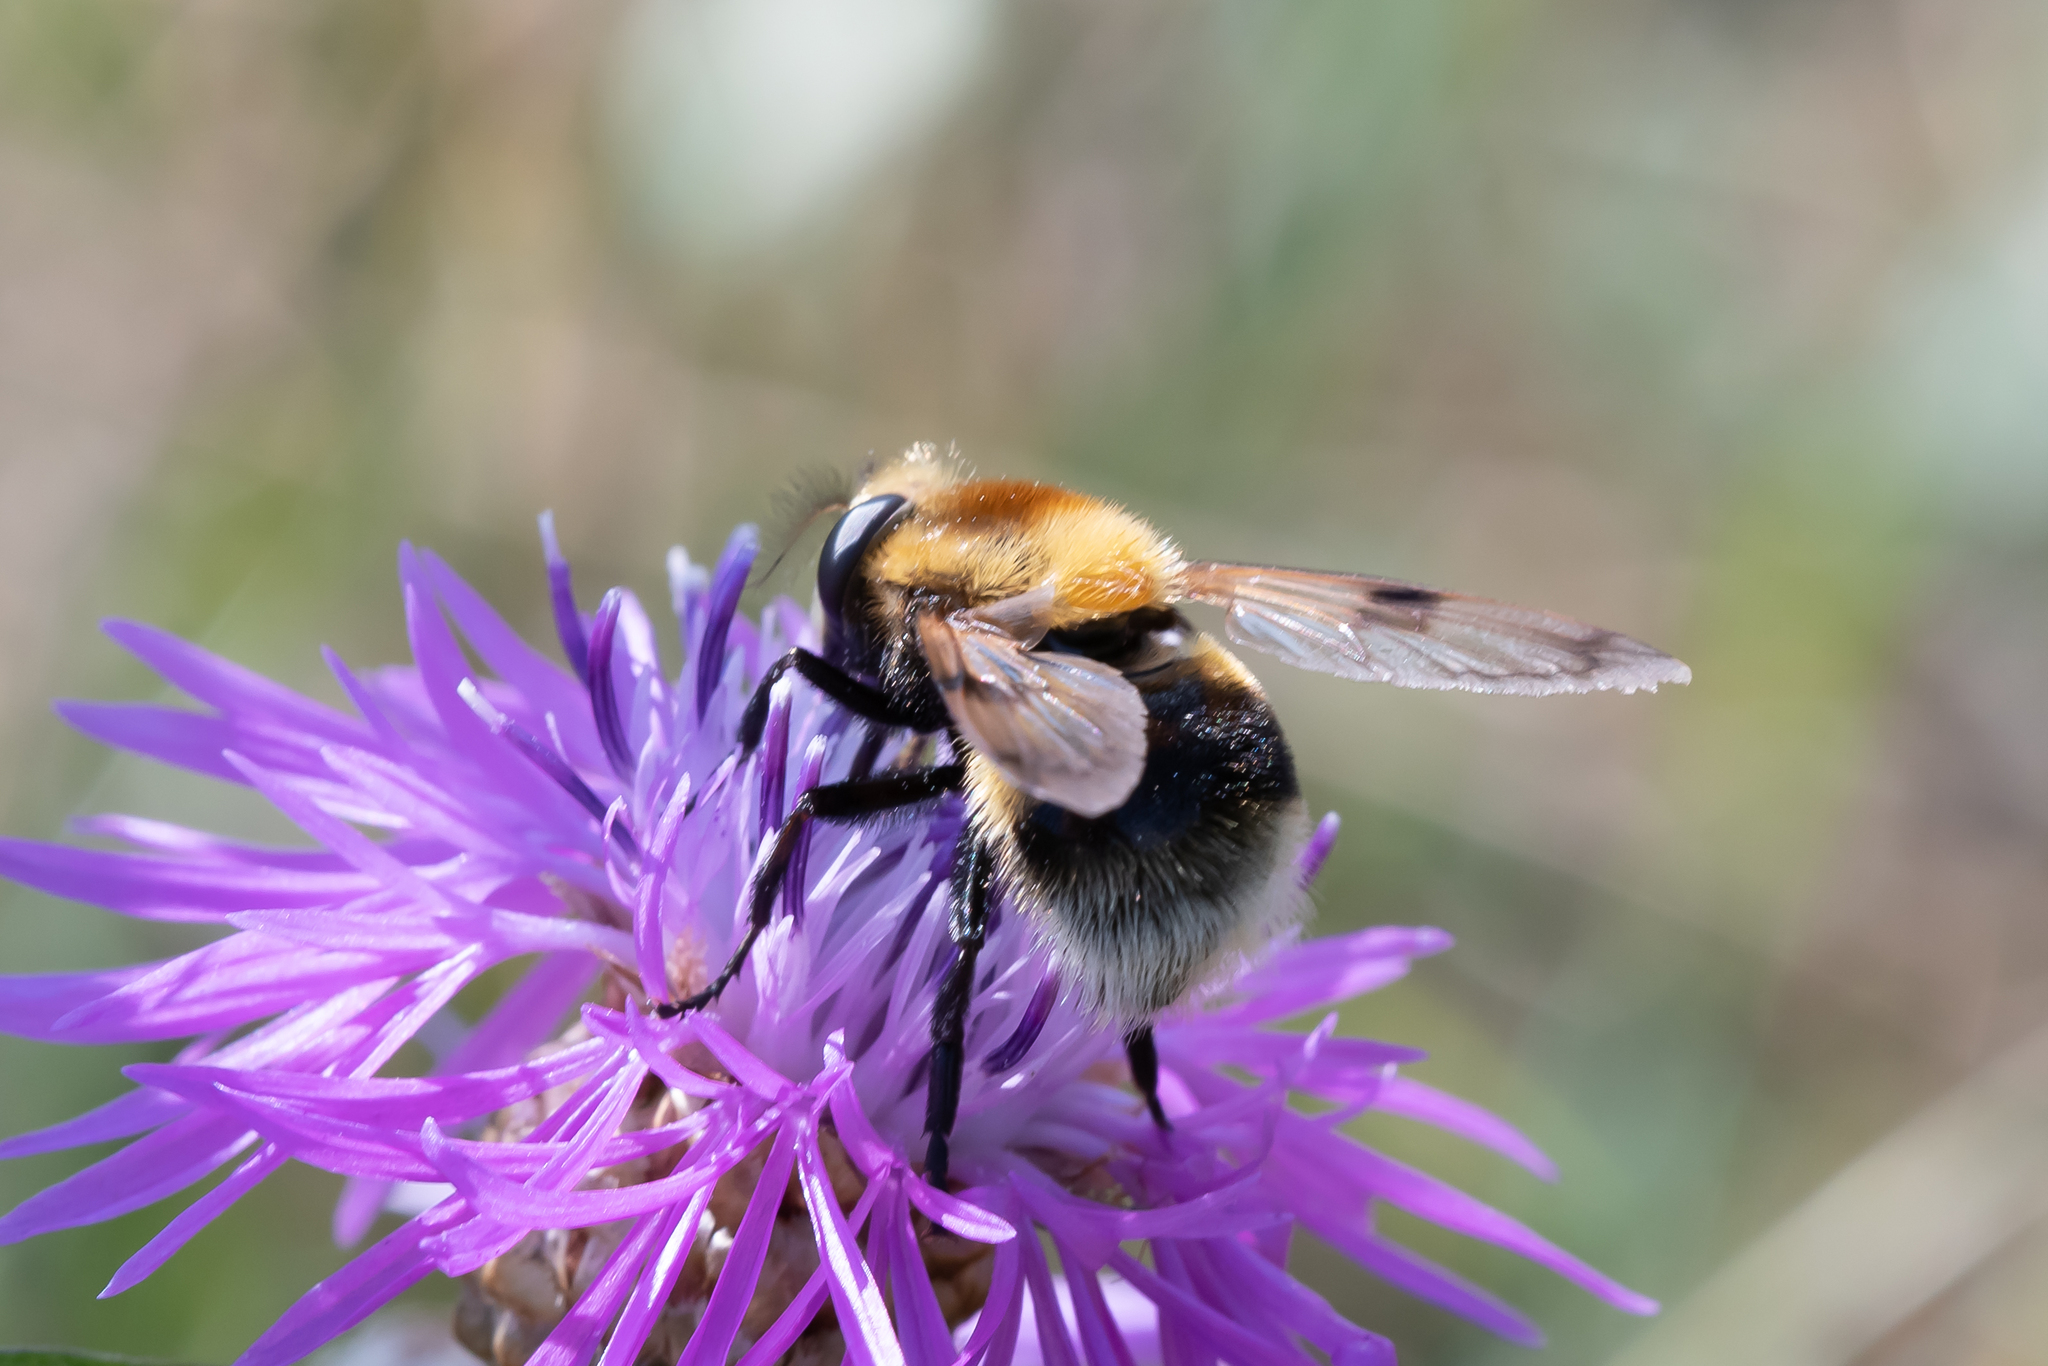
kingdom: Animalia
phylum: Arthropoda
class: Insecta
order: Diptera
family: Syrphidae
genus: Volucella
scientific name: Volucella bombylans
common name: Bumble bee hover fly
